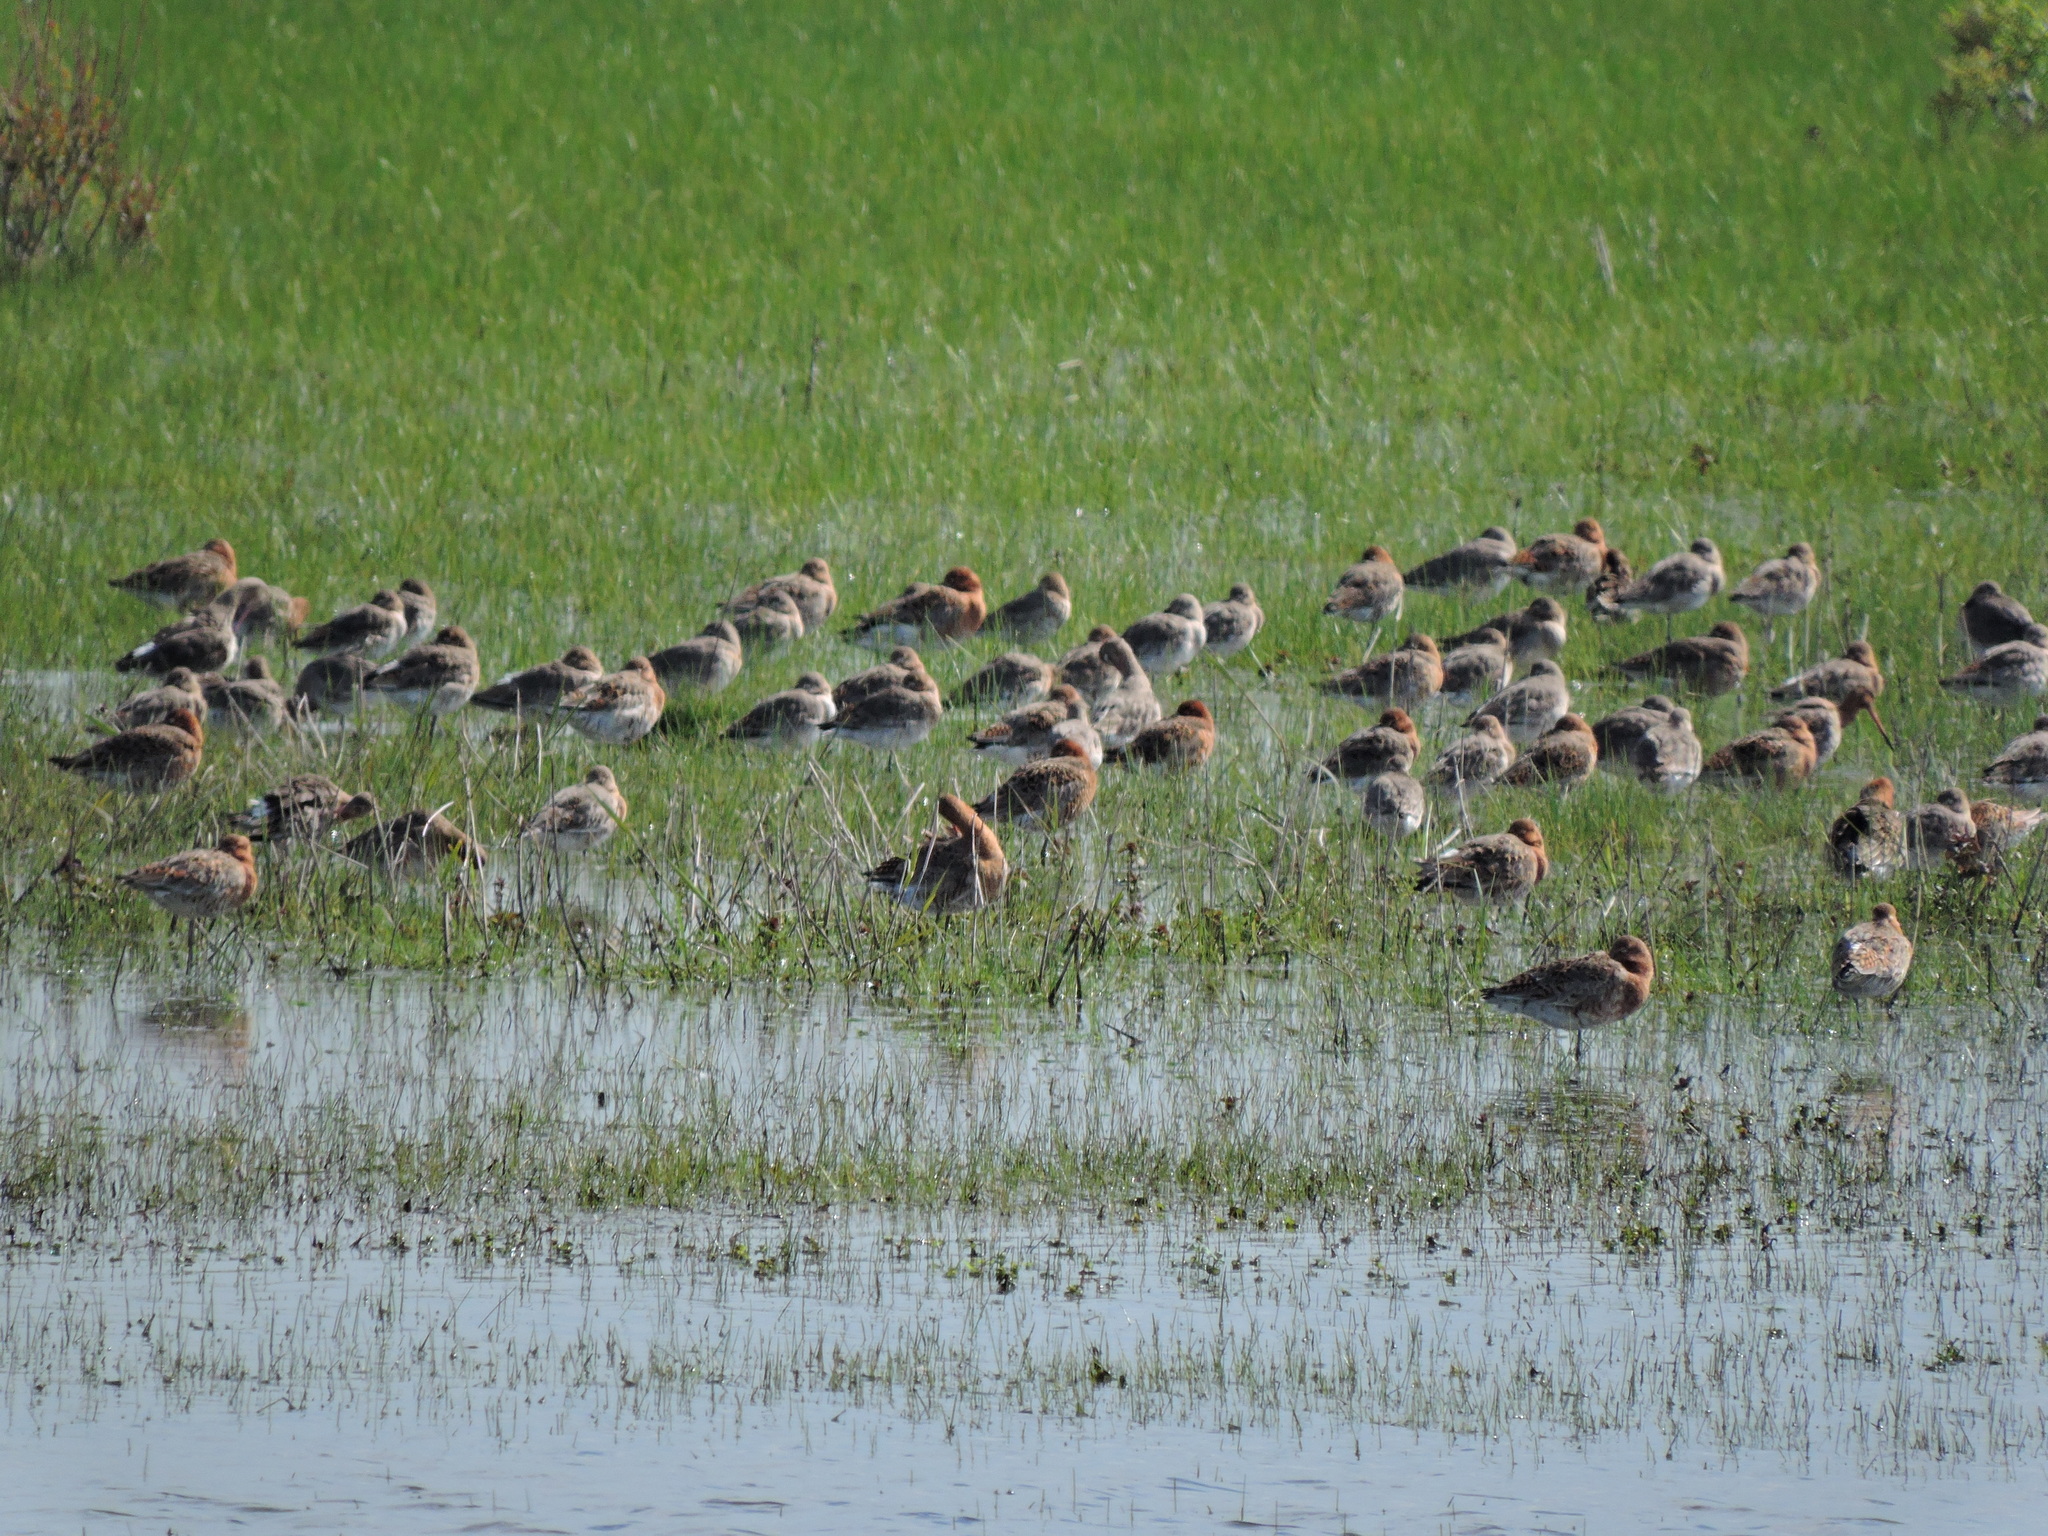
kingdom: Animalia
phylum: Chordata
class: Aves
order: Charadriiformes
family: Scolopacidae
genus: Limosa
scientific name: Limosa limosa
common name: Black-tailed godwit
